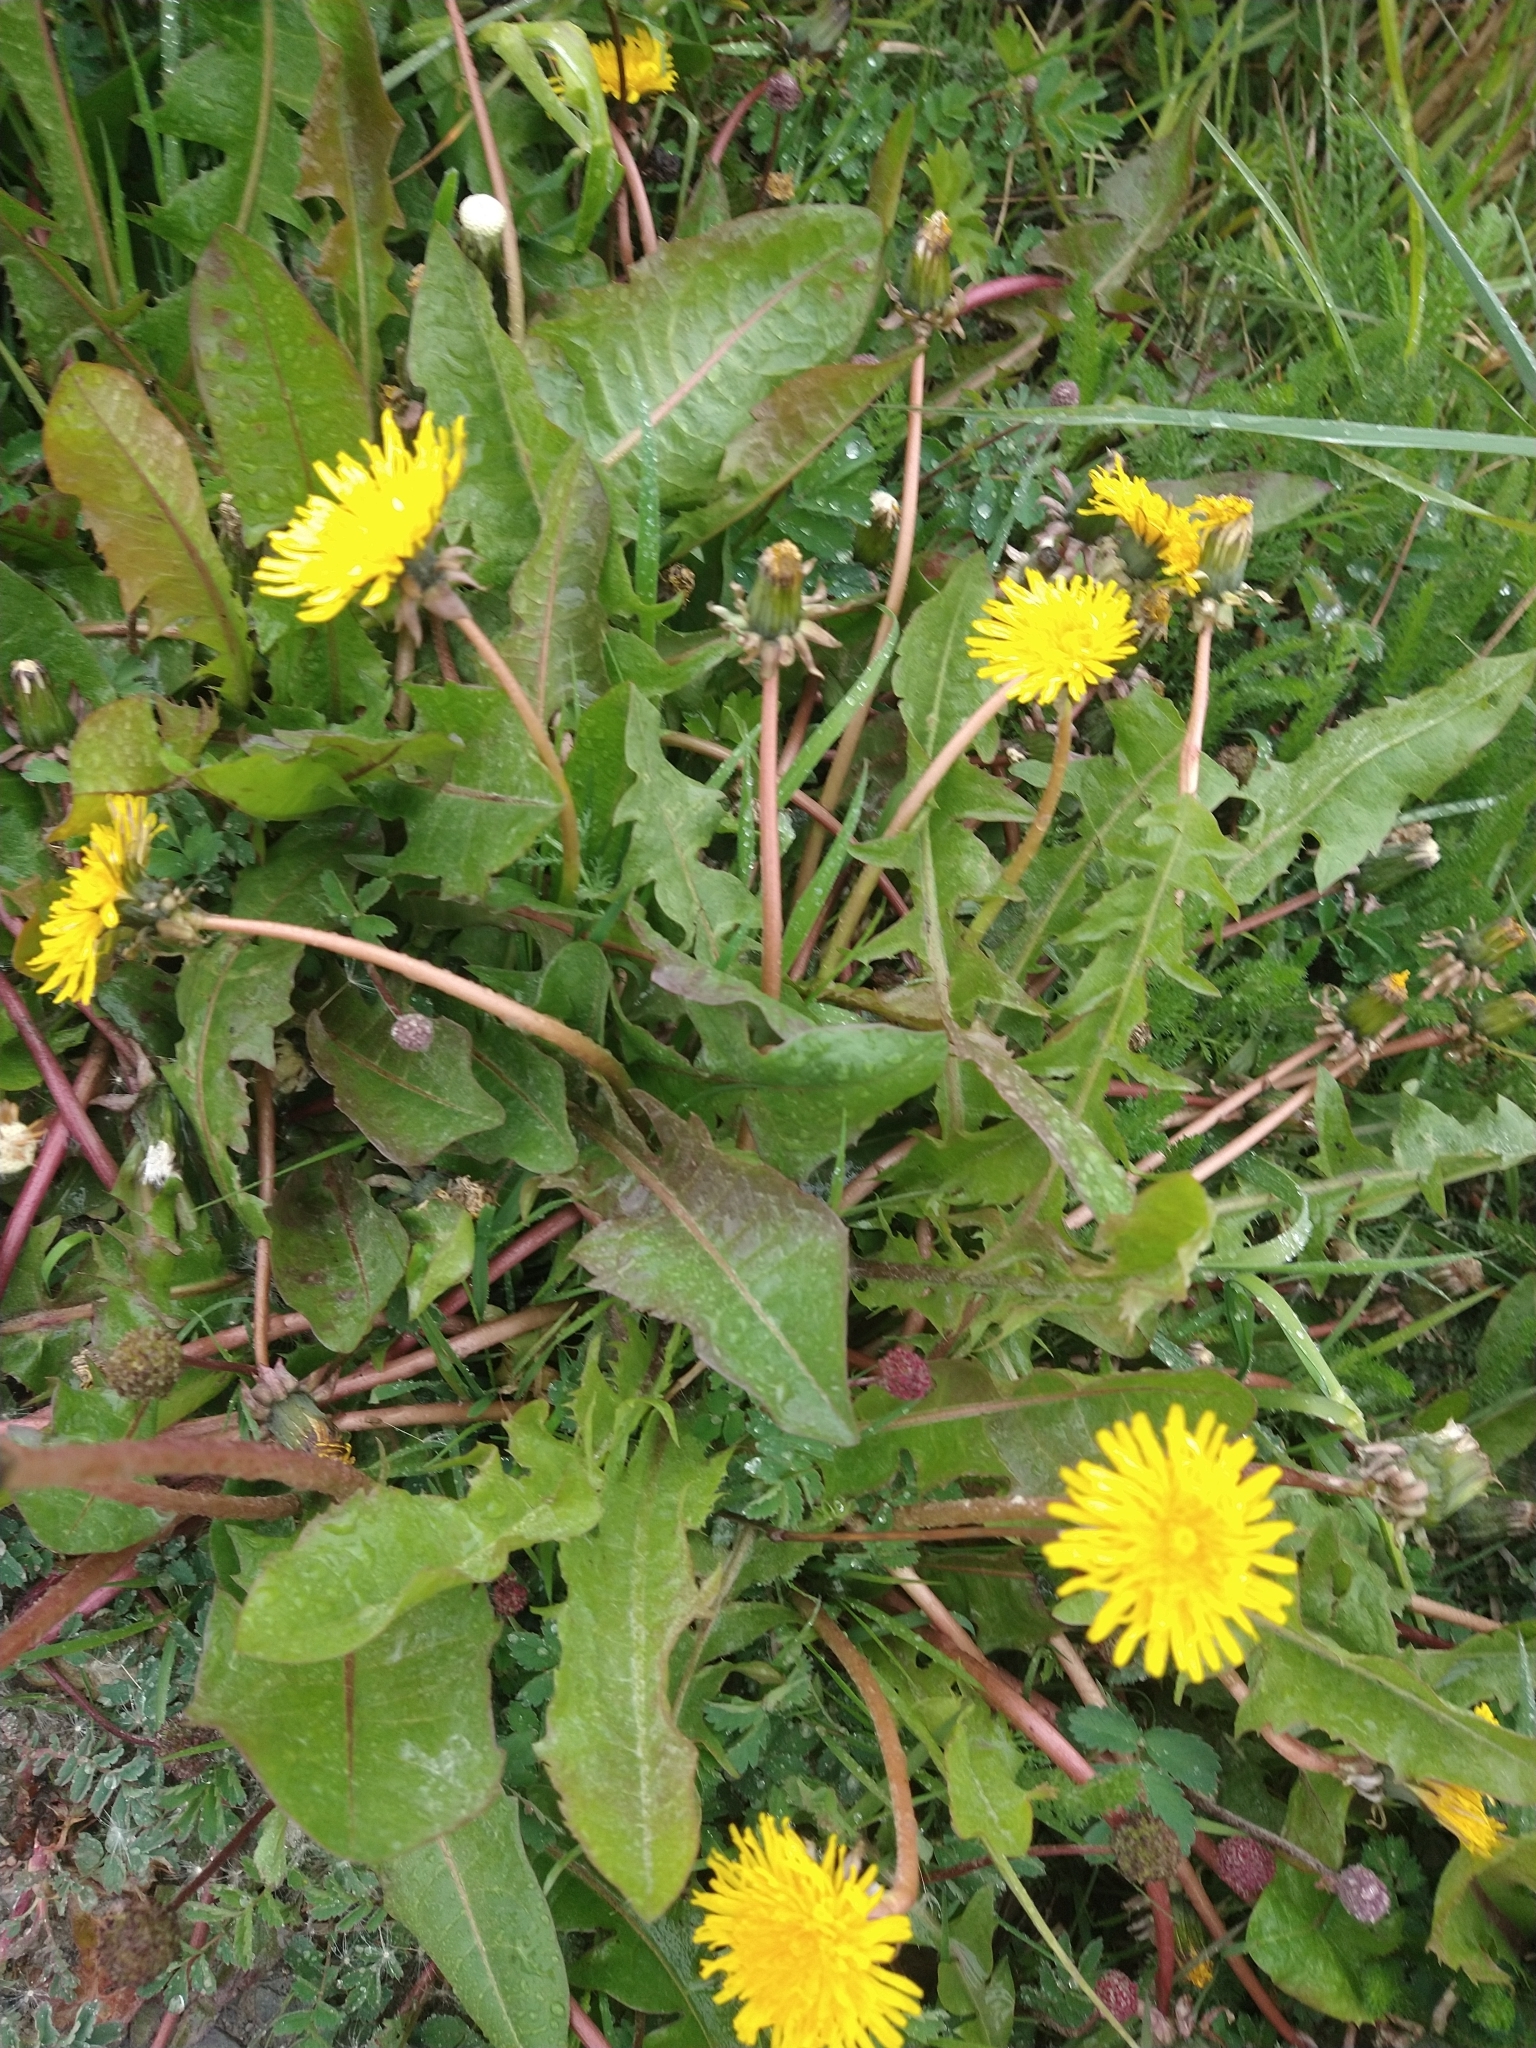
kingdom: Plantae
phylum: Tracheophyta
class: Magnoliopsida
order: Asterales
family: Asteraceae
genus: Taraxacum
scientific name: Taraxacum officinale
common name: Common dandelion
